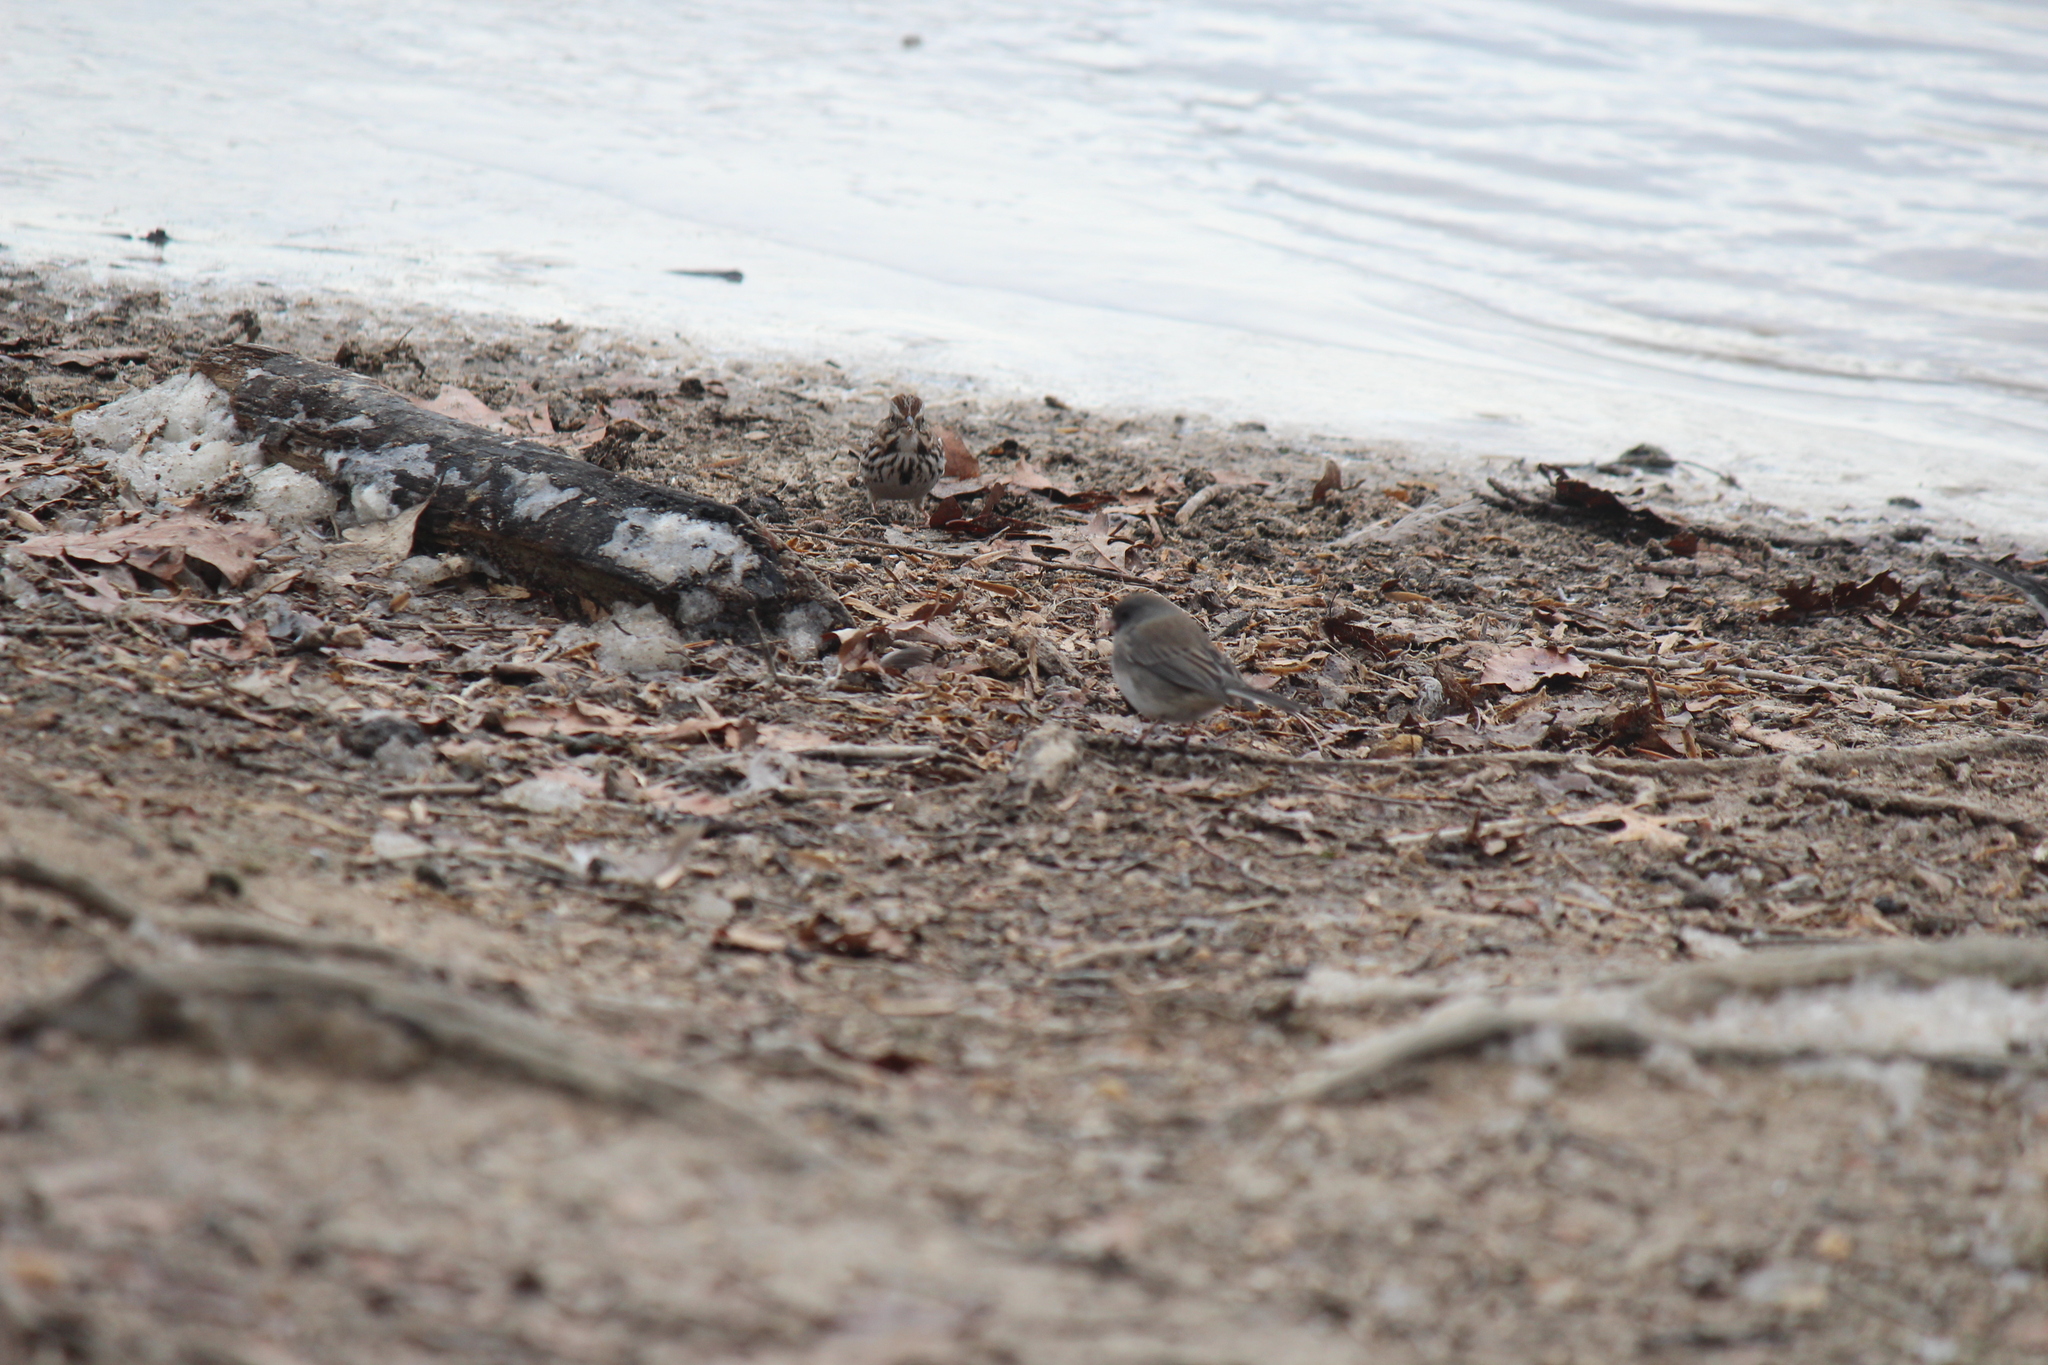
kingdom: Animalia
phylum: Chordata
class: Aves
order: Passeriformes
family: Passerellidae
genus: Melospiza
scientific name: Melospiza melodia
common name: Song sparrow
